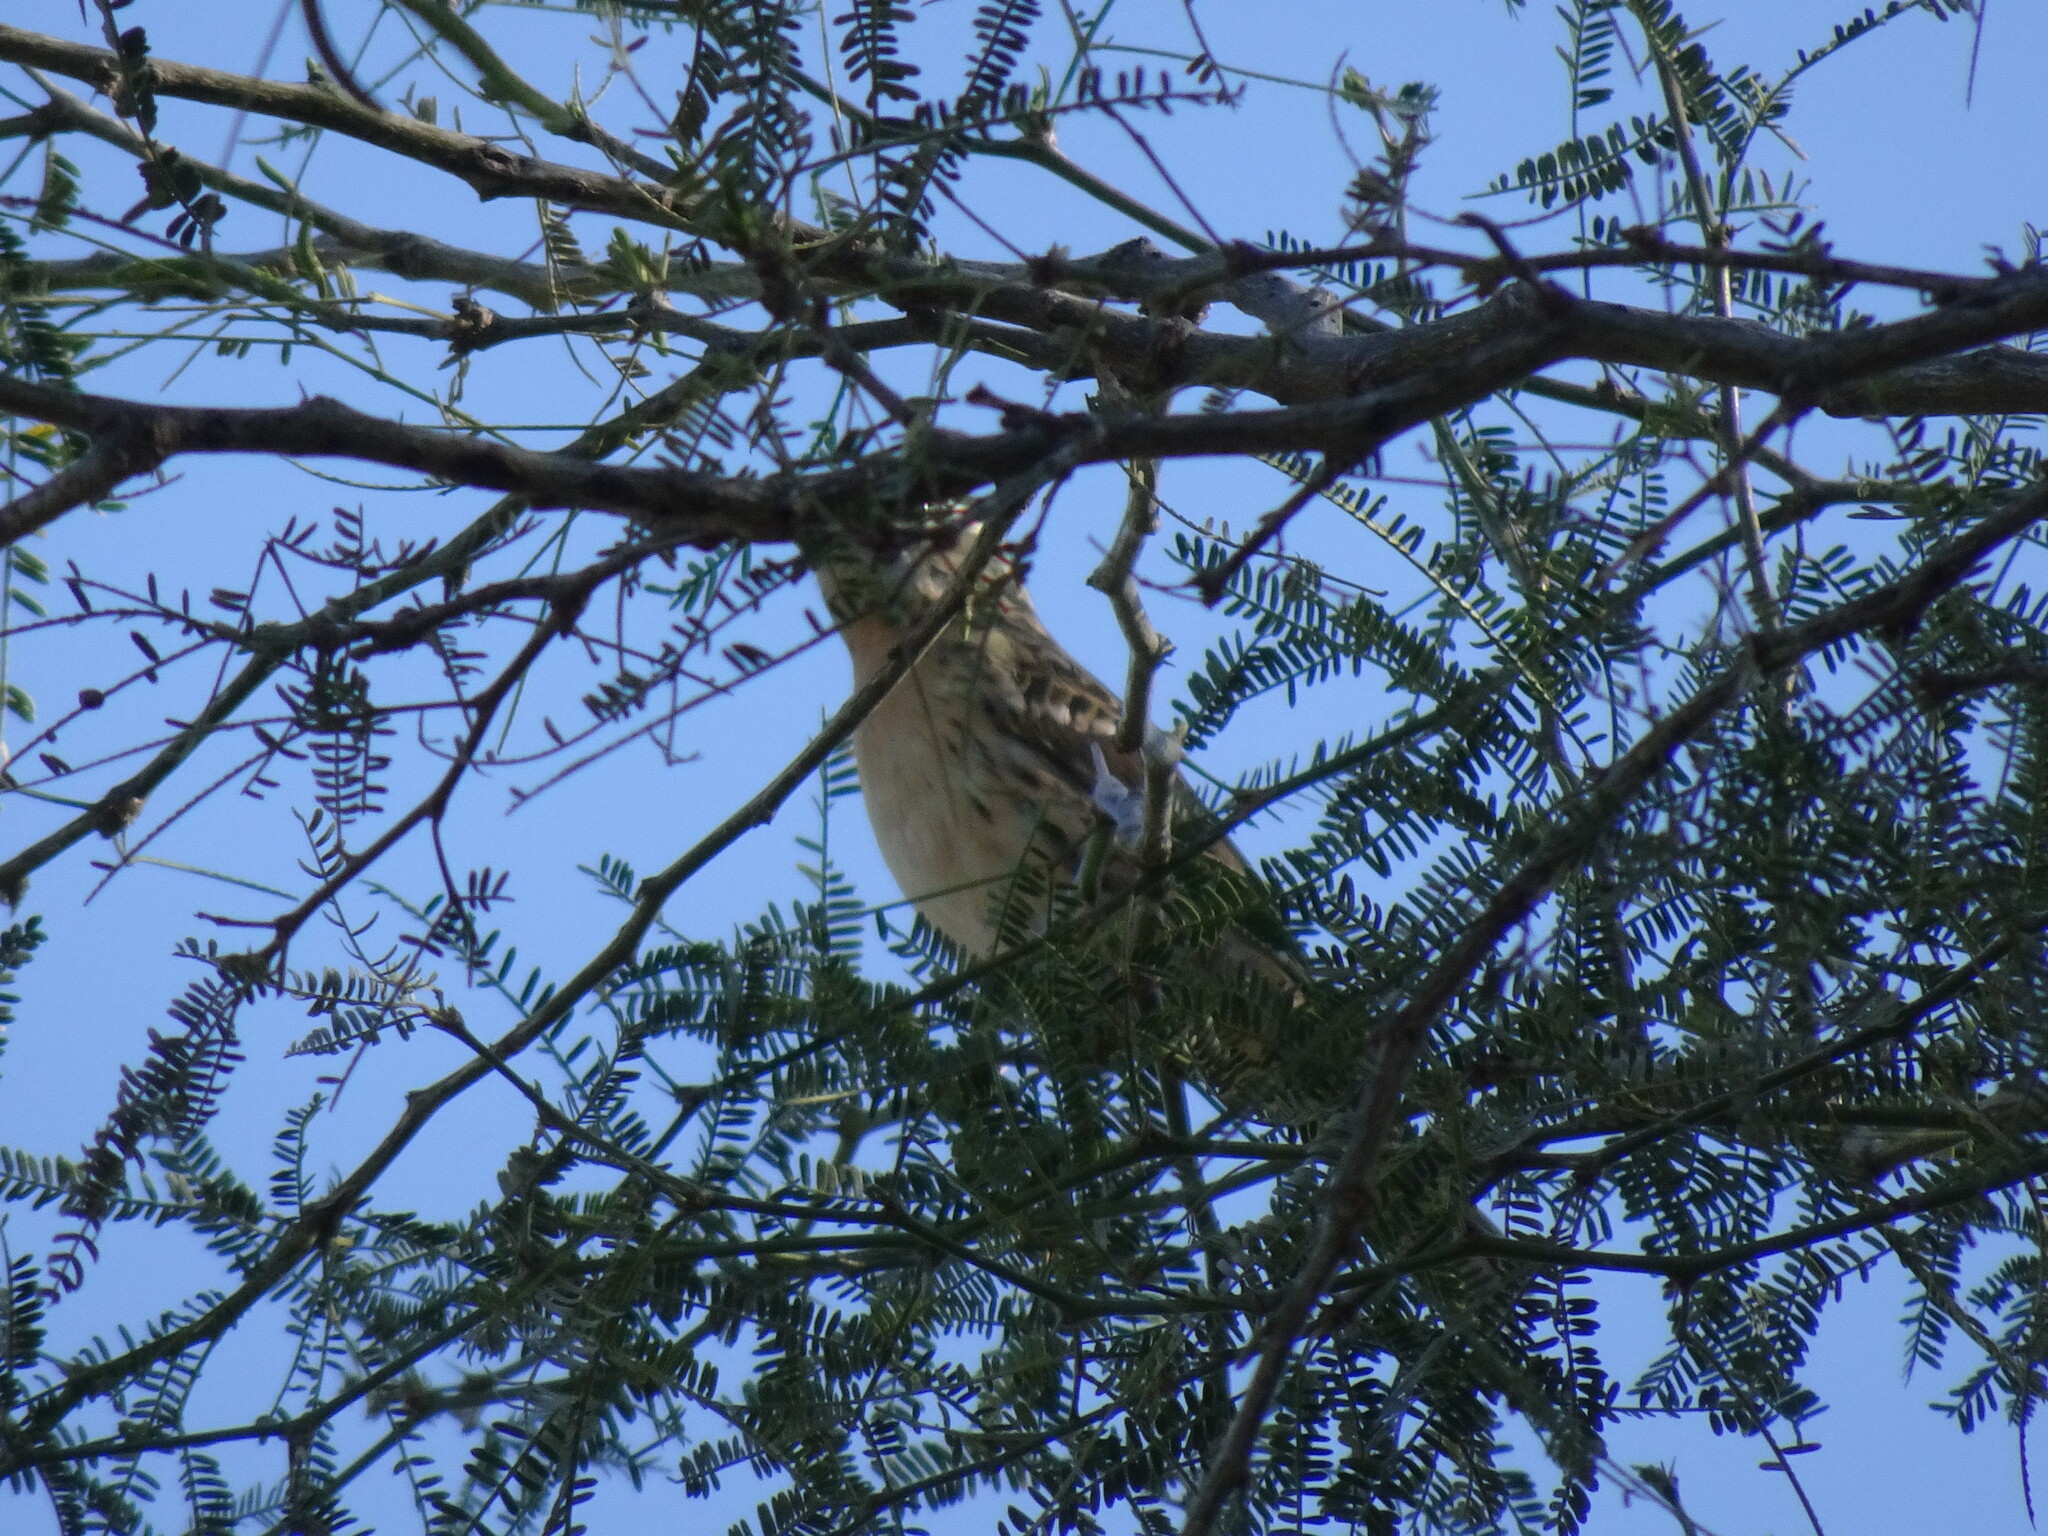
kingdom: Animalia
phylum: Chordata
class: Aves
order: Passeriformes
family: Cardinalidae
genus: Pheucticus
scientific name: Pheucticus melanocephalus
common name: Black-headed grosbeak
